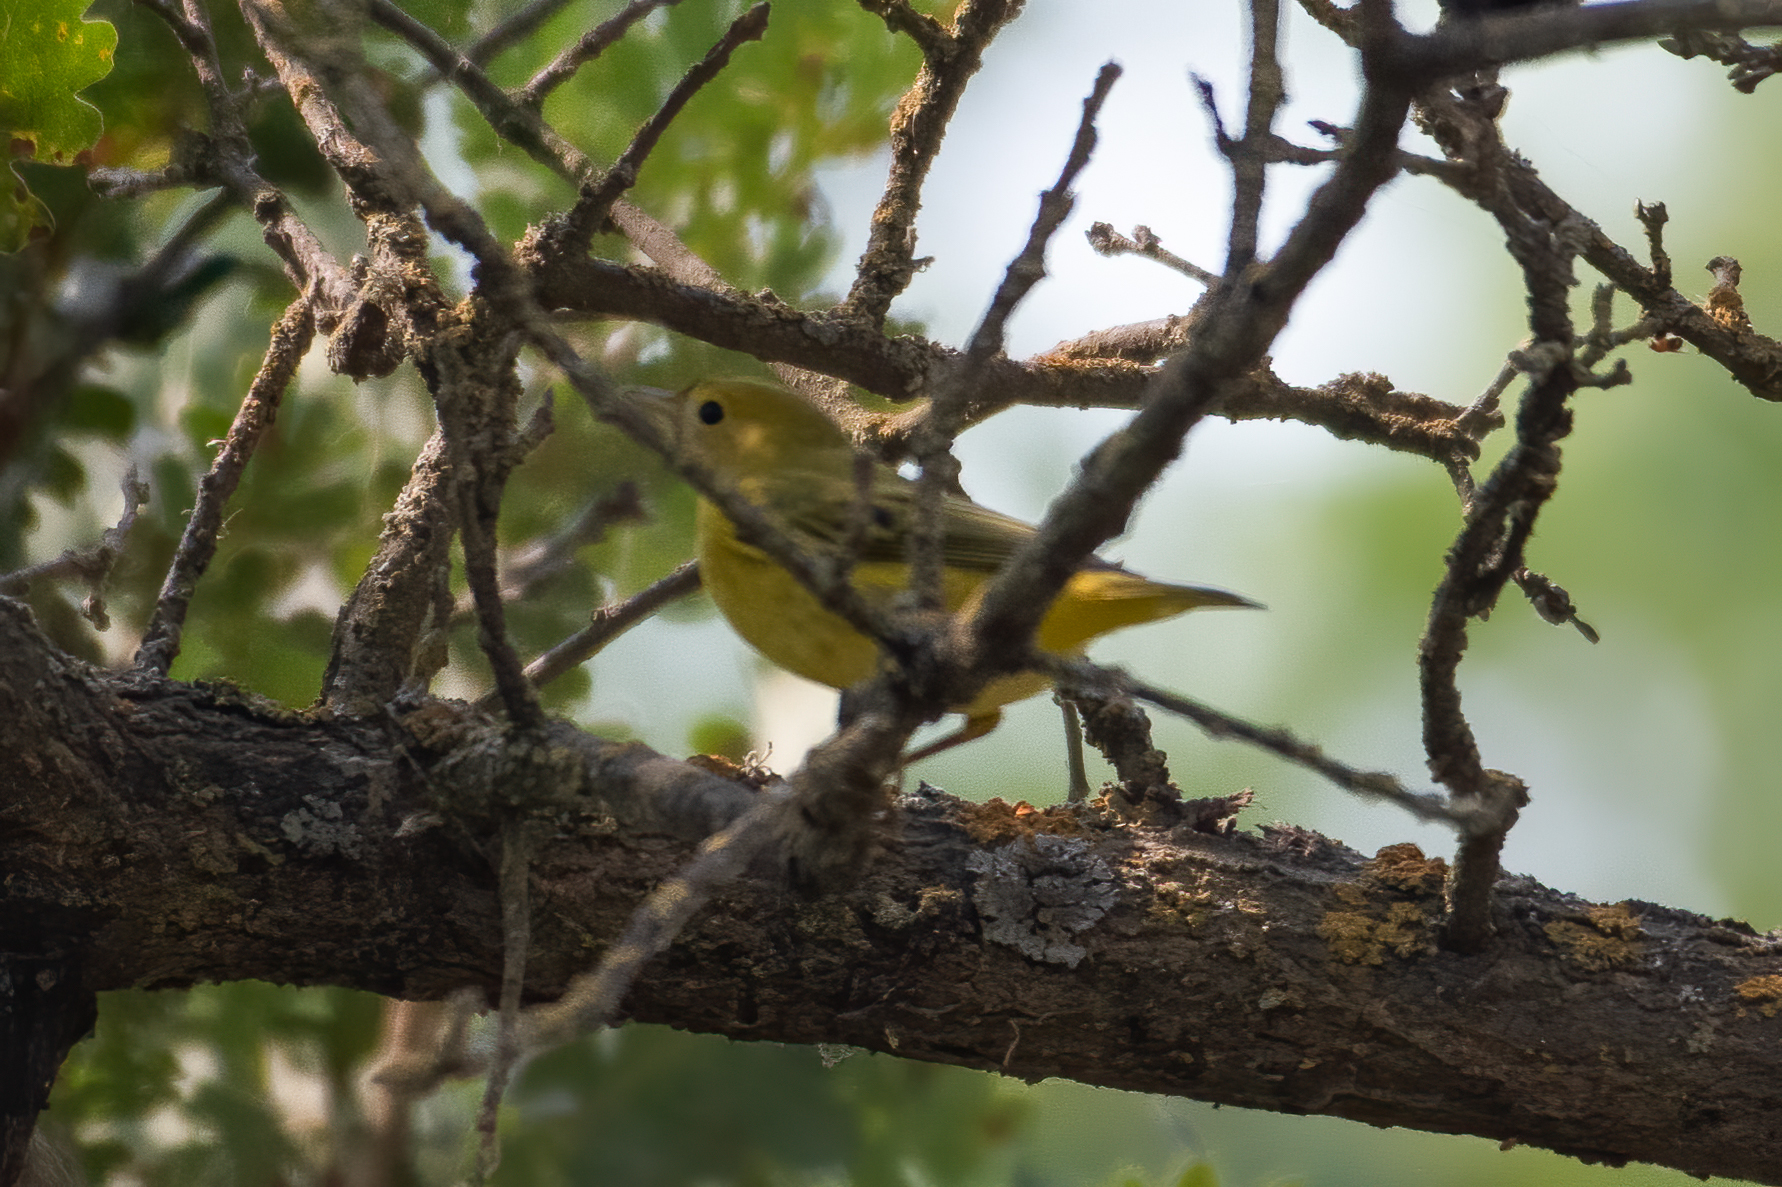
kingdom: Animalia
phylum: Chordata
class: Aves
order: Passeriformes
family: Parulidae
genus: Setophaga
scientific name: Setophaga petechia
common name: Yellow warbler
